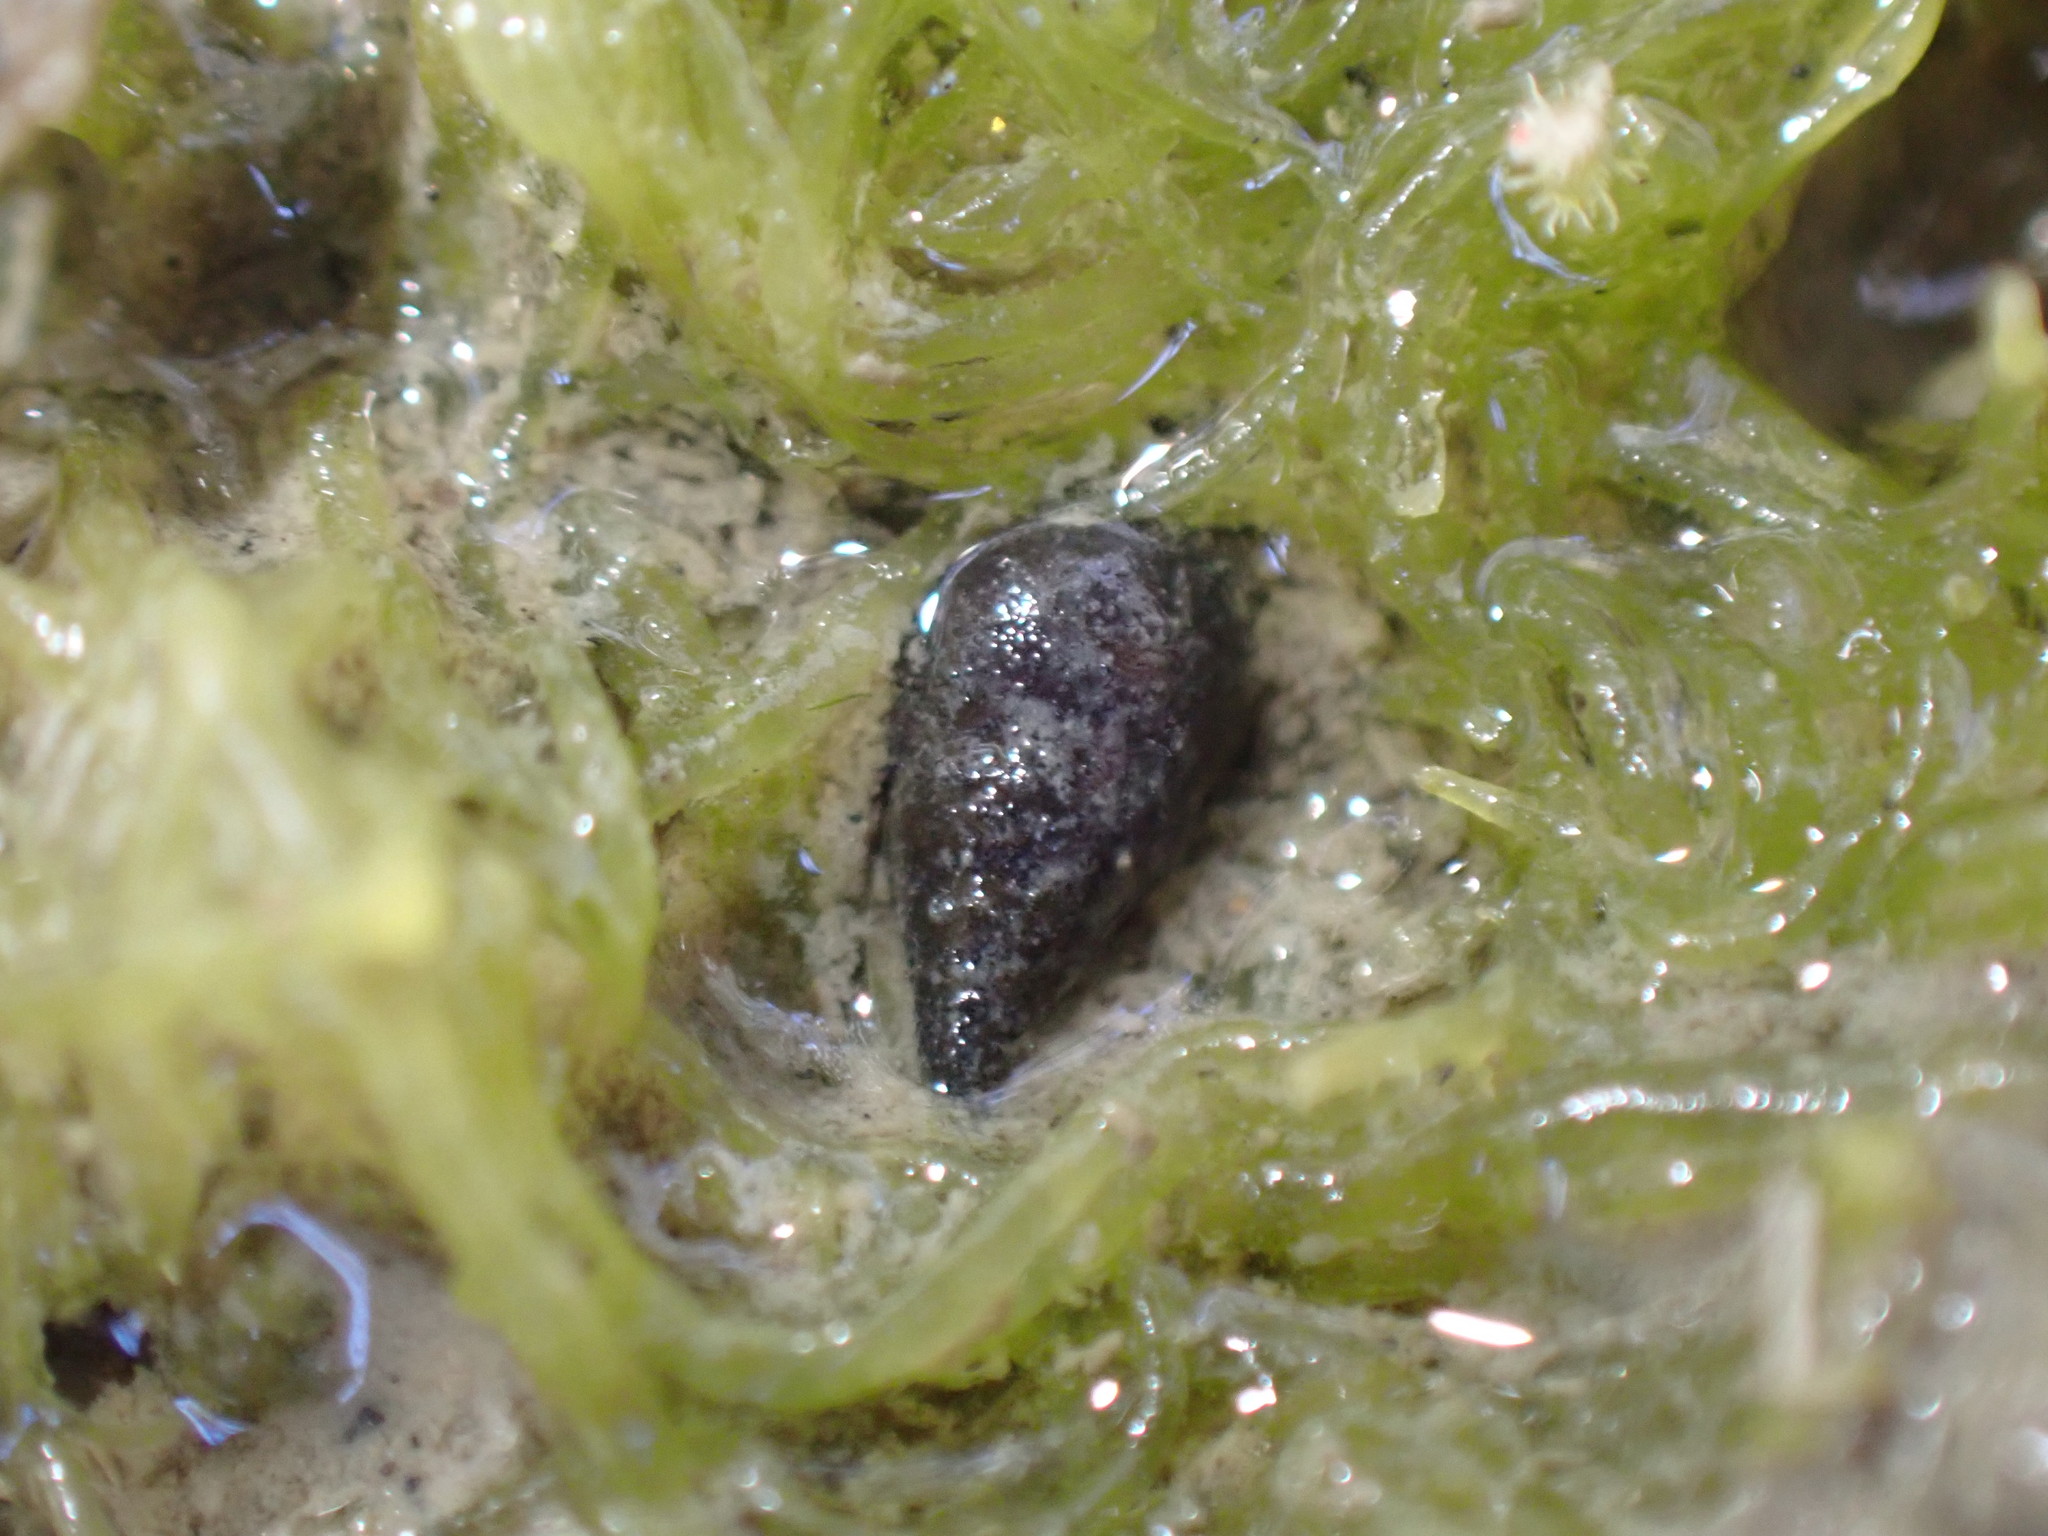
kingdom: Animalia
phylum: Mollusca
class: Gastropoda
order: Littorinimorpha
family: Tateidae
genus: Potamopyrgus
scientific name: Potamopyrgus estuarinus
